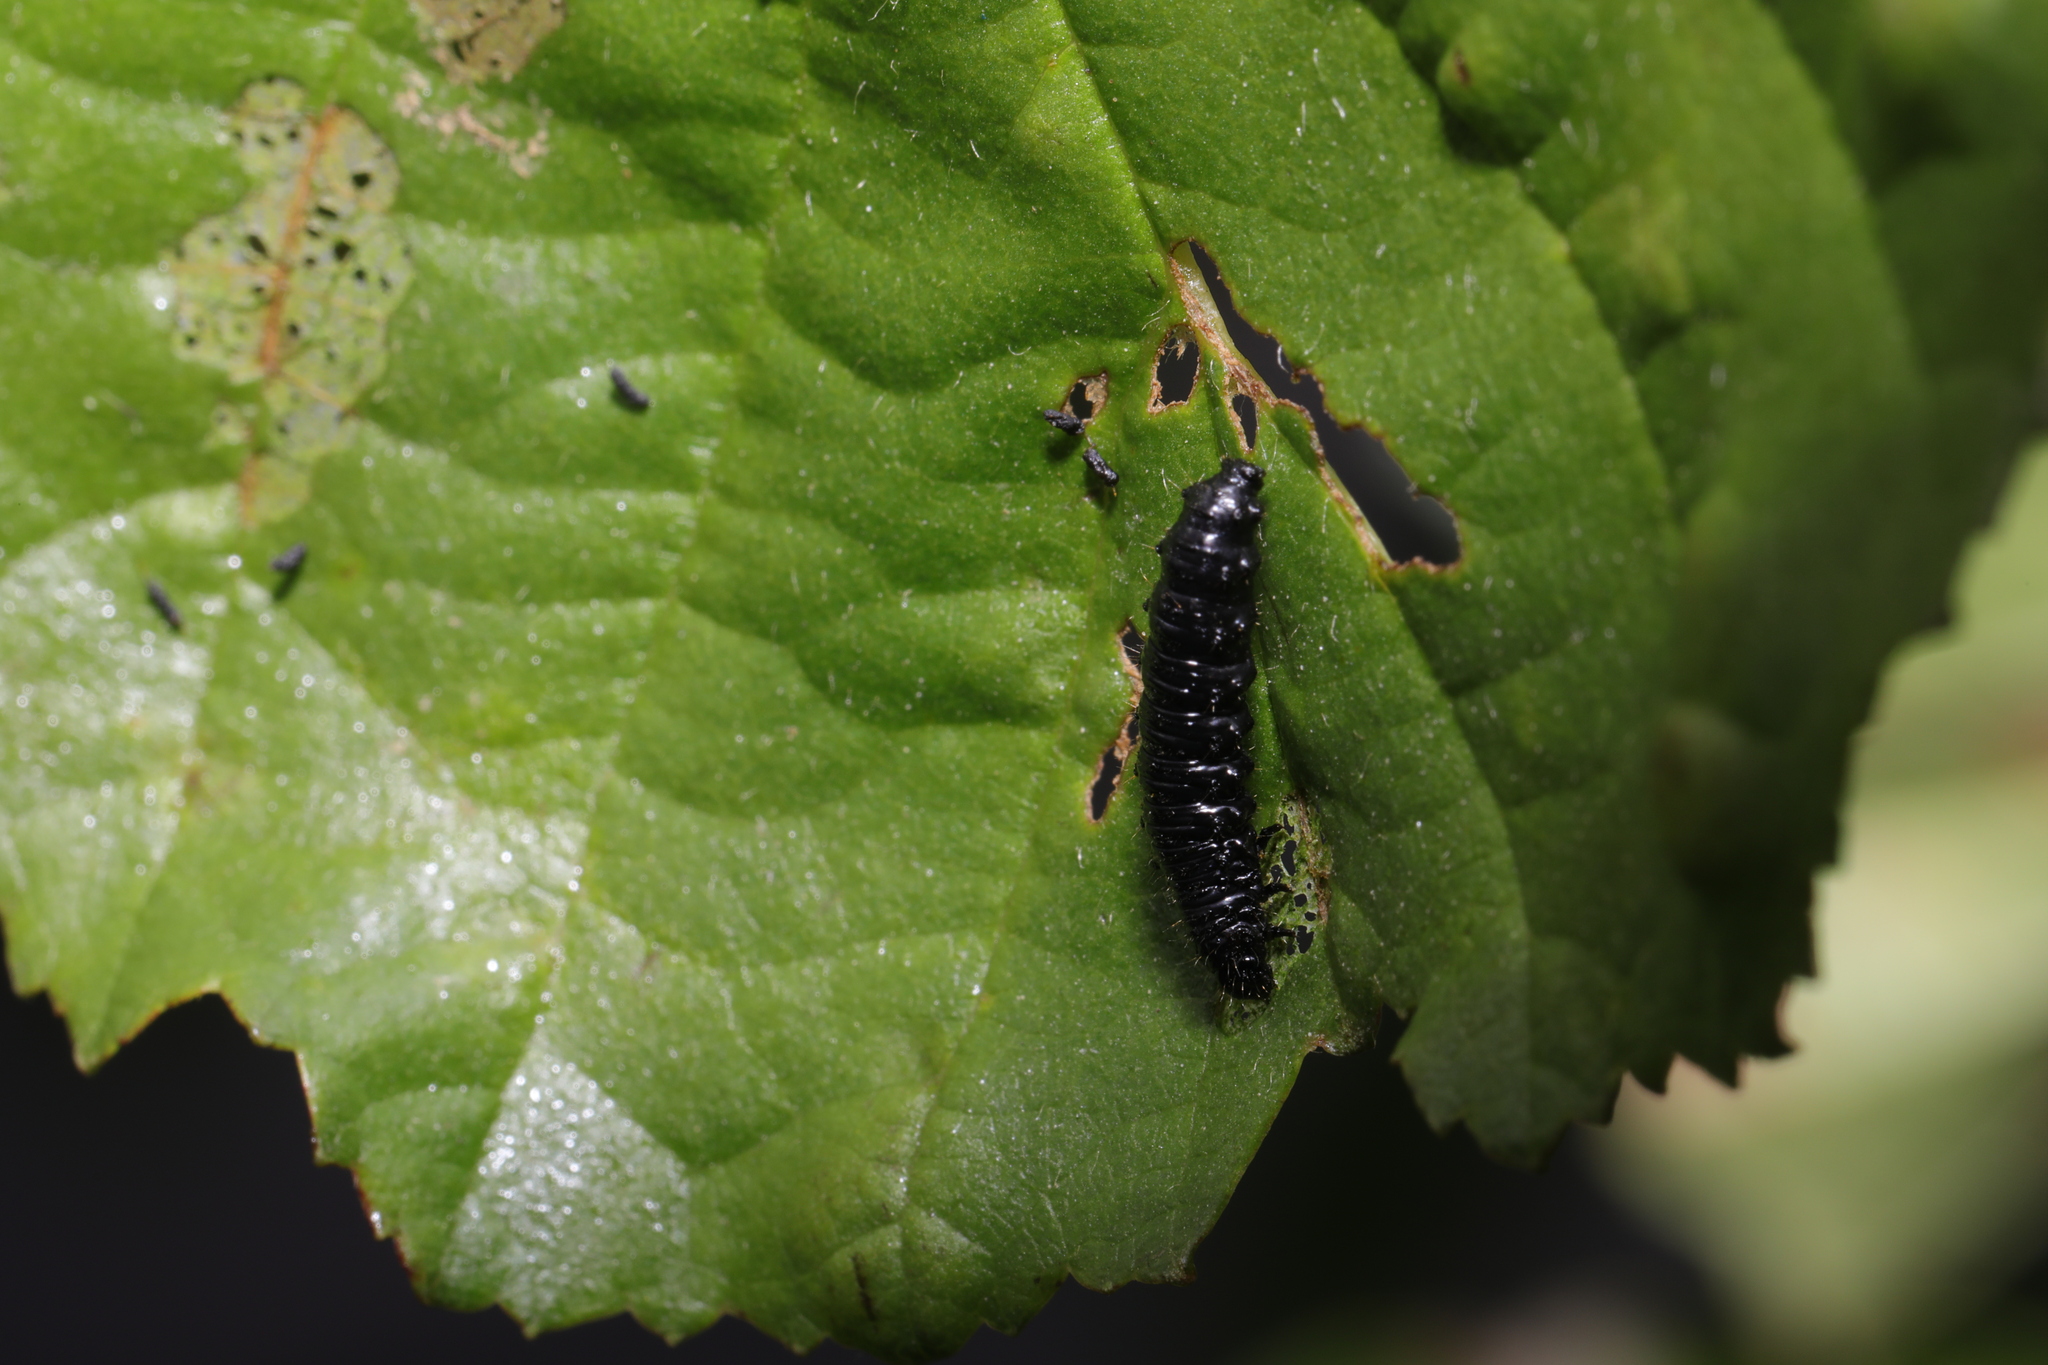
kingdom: Animalia
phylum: Arthropoda
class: Insecta
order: Coleoptera
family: Chrysomelidae
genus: Agelastica
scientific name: Agelastica alni
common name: Alder leaf beetle
